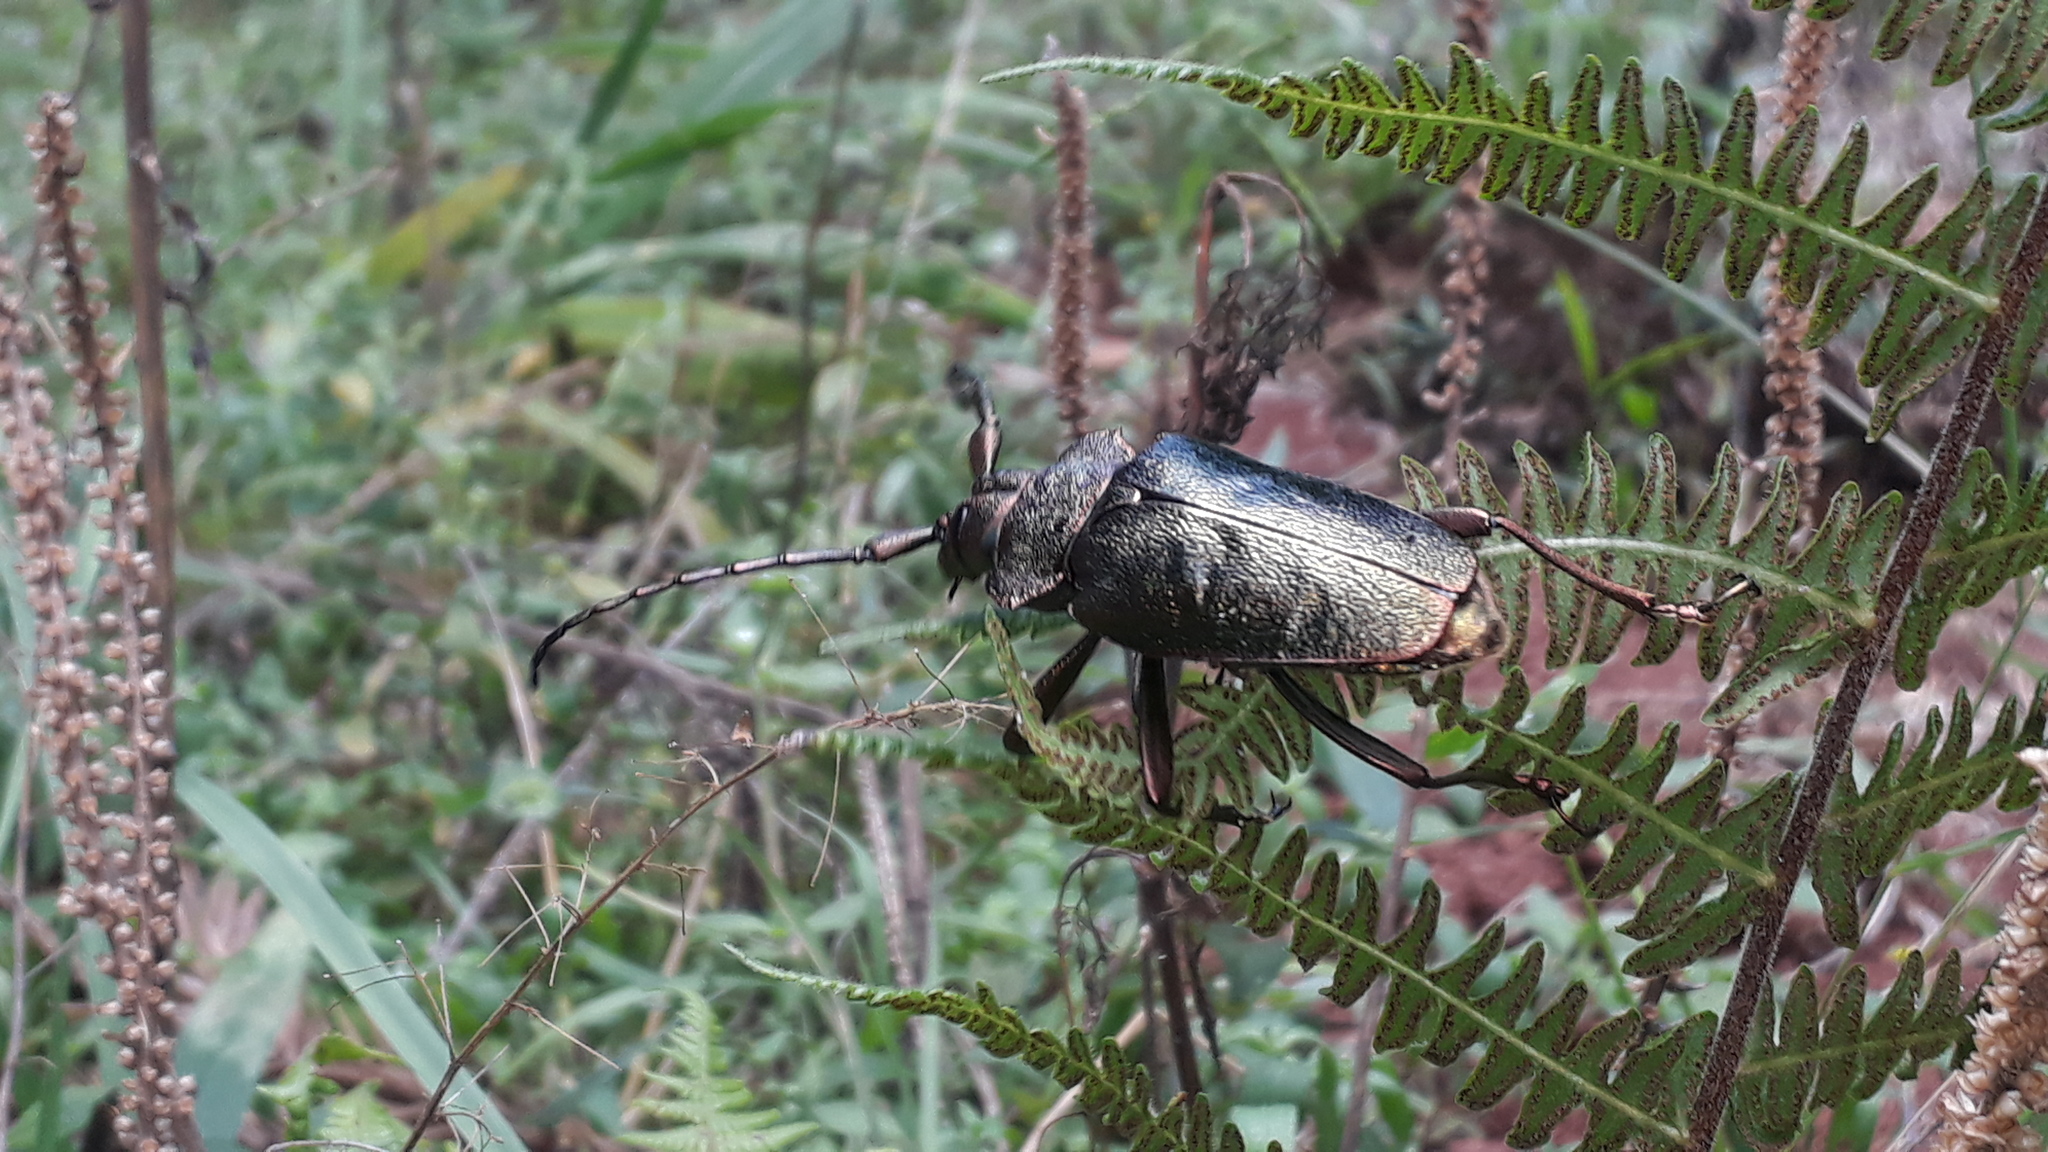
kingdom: Animalia
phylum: Arthropoda
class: Insecta
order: Coleoptera
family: Cerambycidae
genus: Pyrodes
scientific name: Pyrodes nitidus
